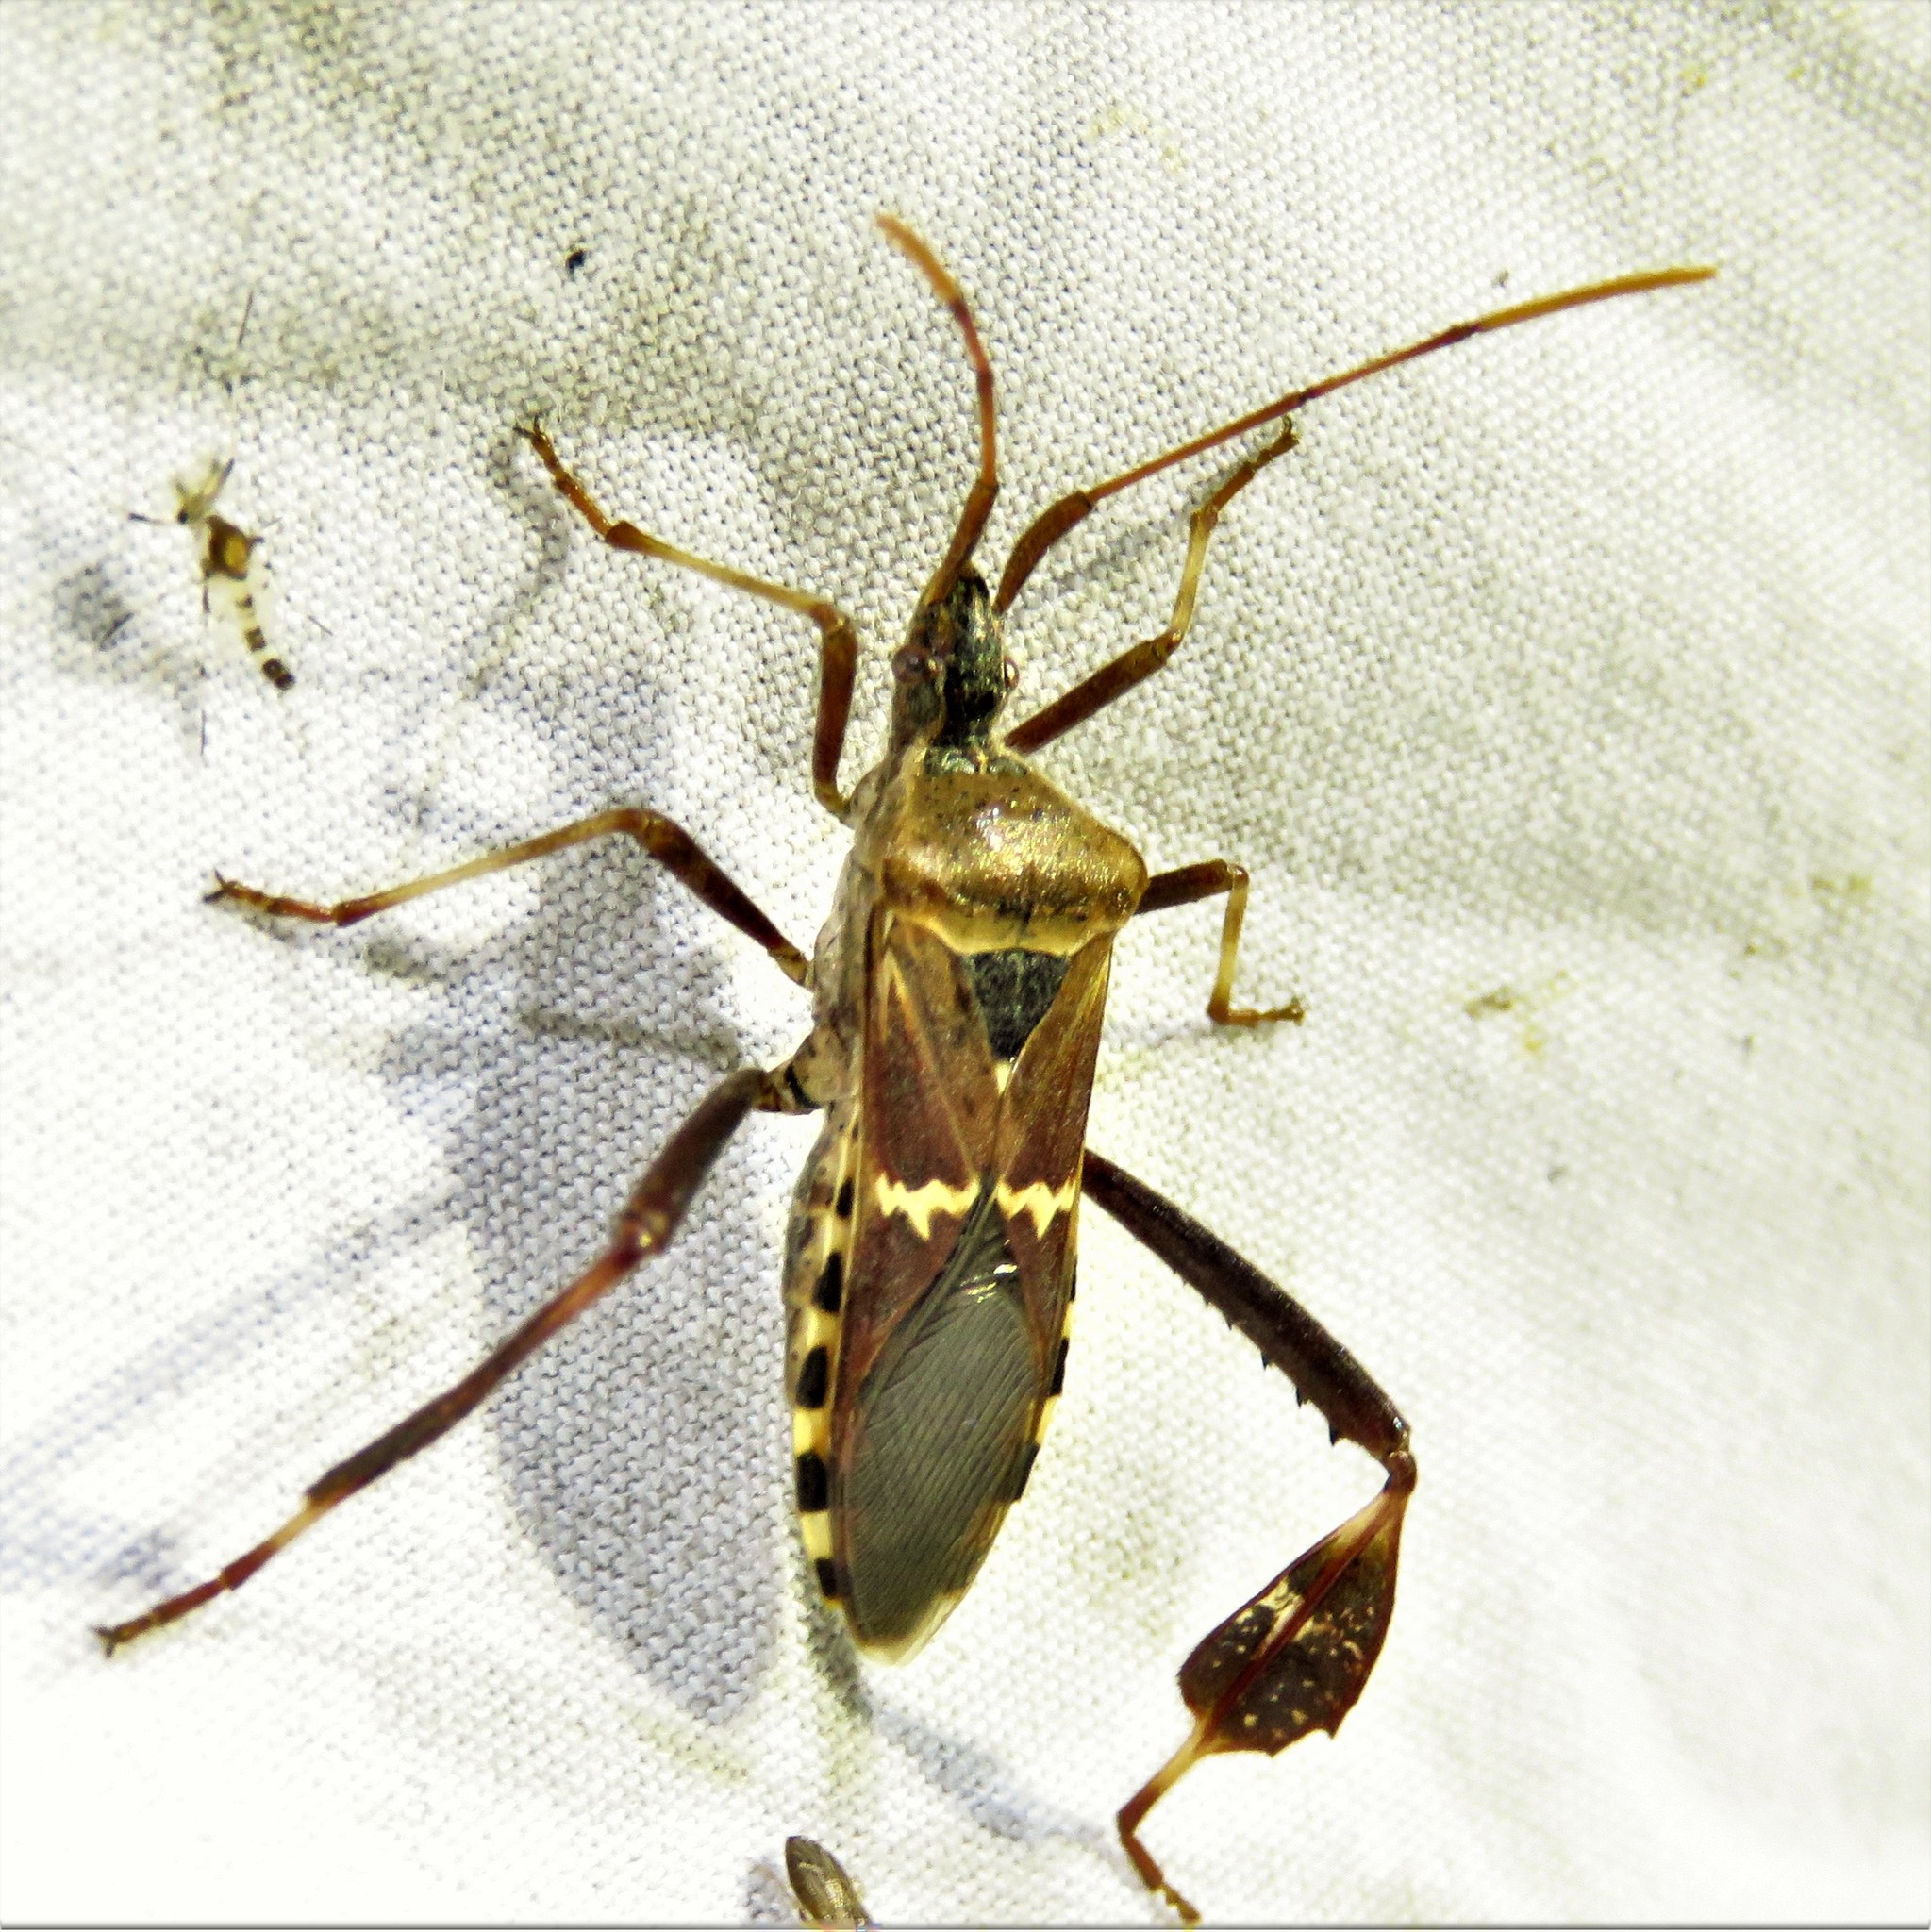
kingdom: Animalia
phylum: Arthropoda
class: Insecta
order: Hemiptera
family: Coreidae
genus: Leptoglossus
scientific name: Leptoglossus clypealis
